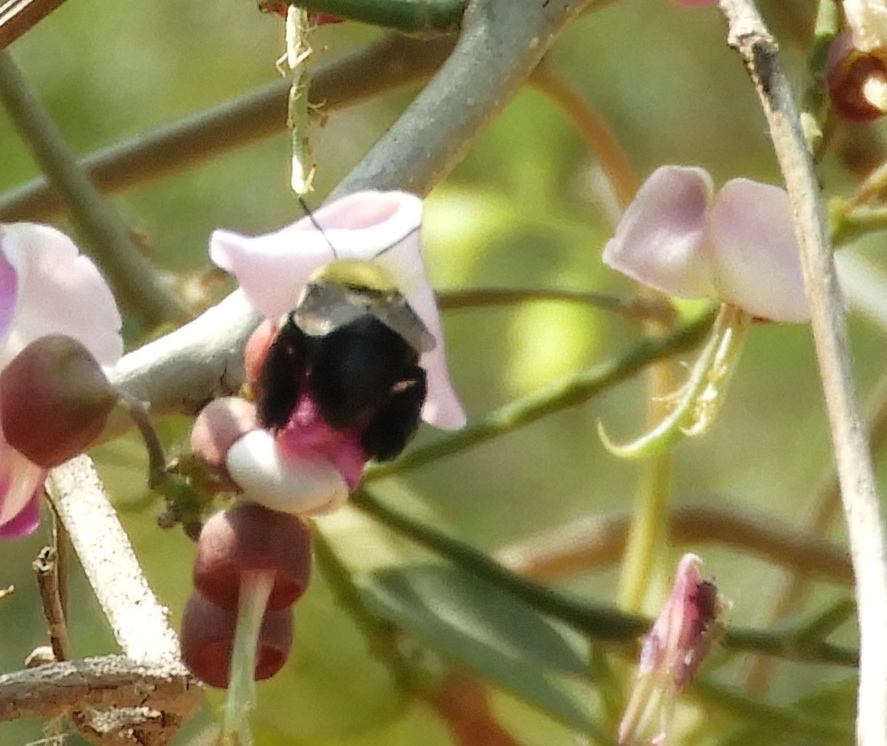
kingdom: Animalia
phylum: Arthropoda
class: Insecta
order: Hymenoptera
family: Apidae
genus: Centris
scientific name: Centris
